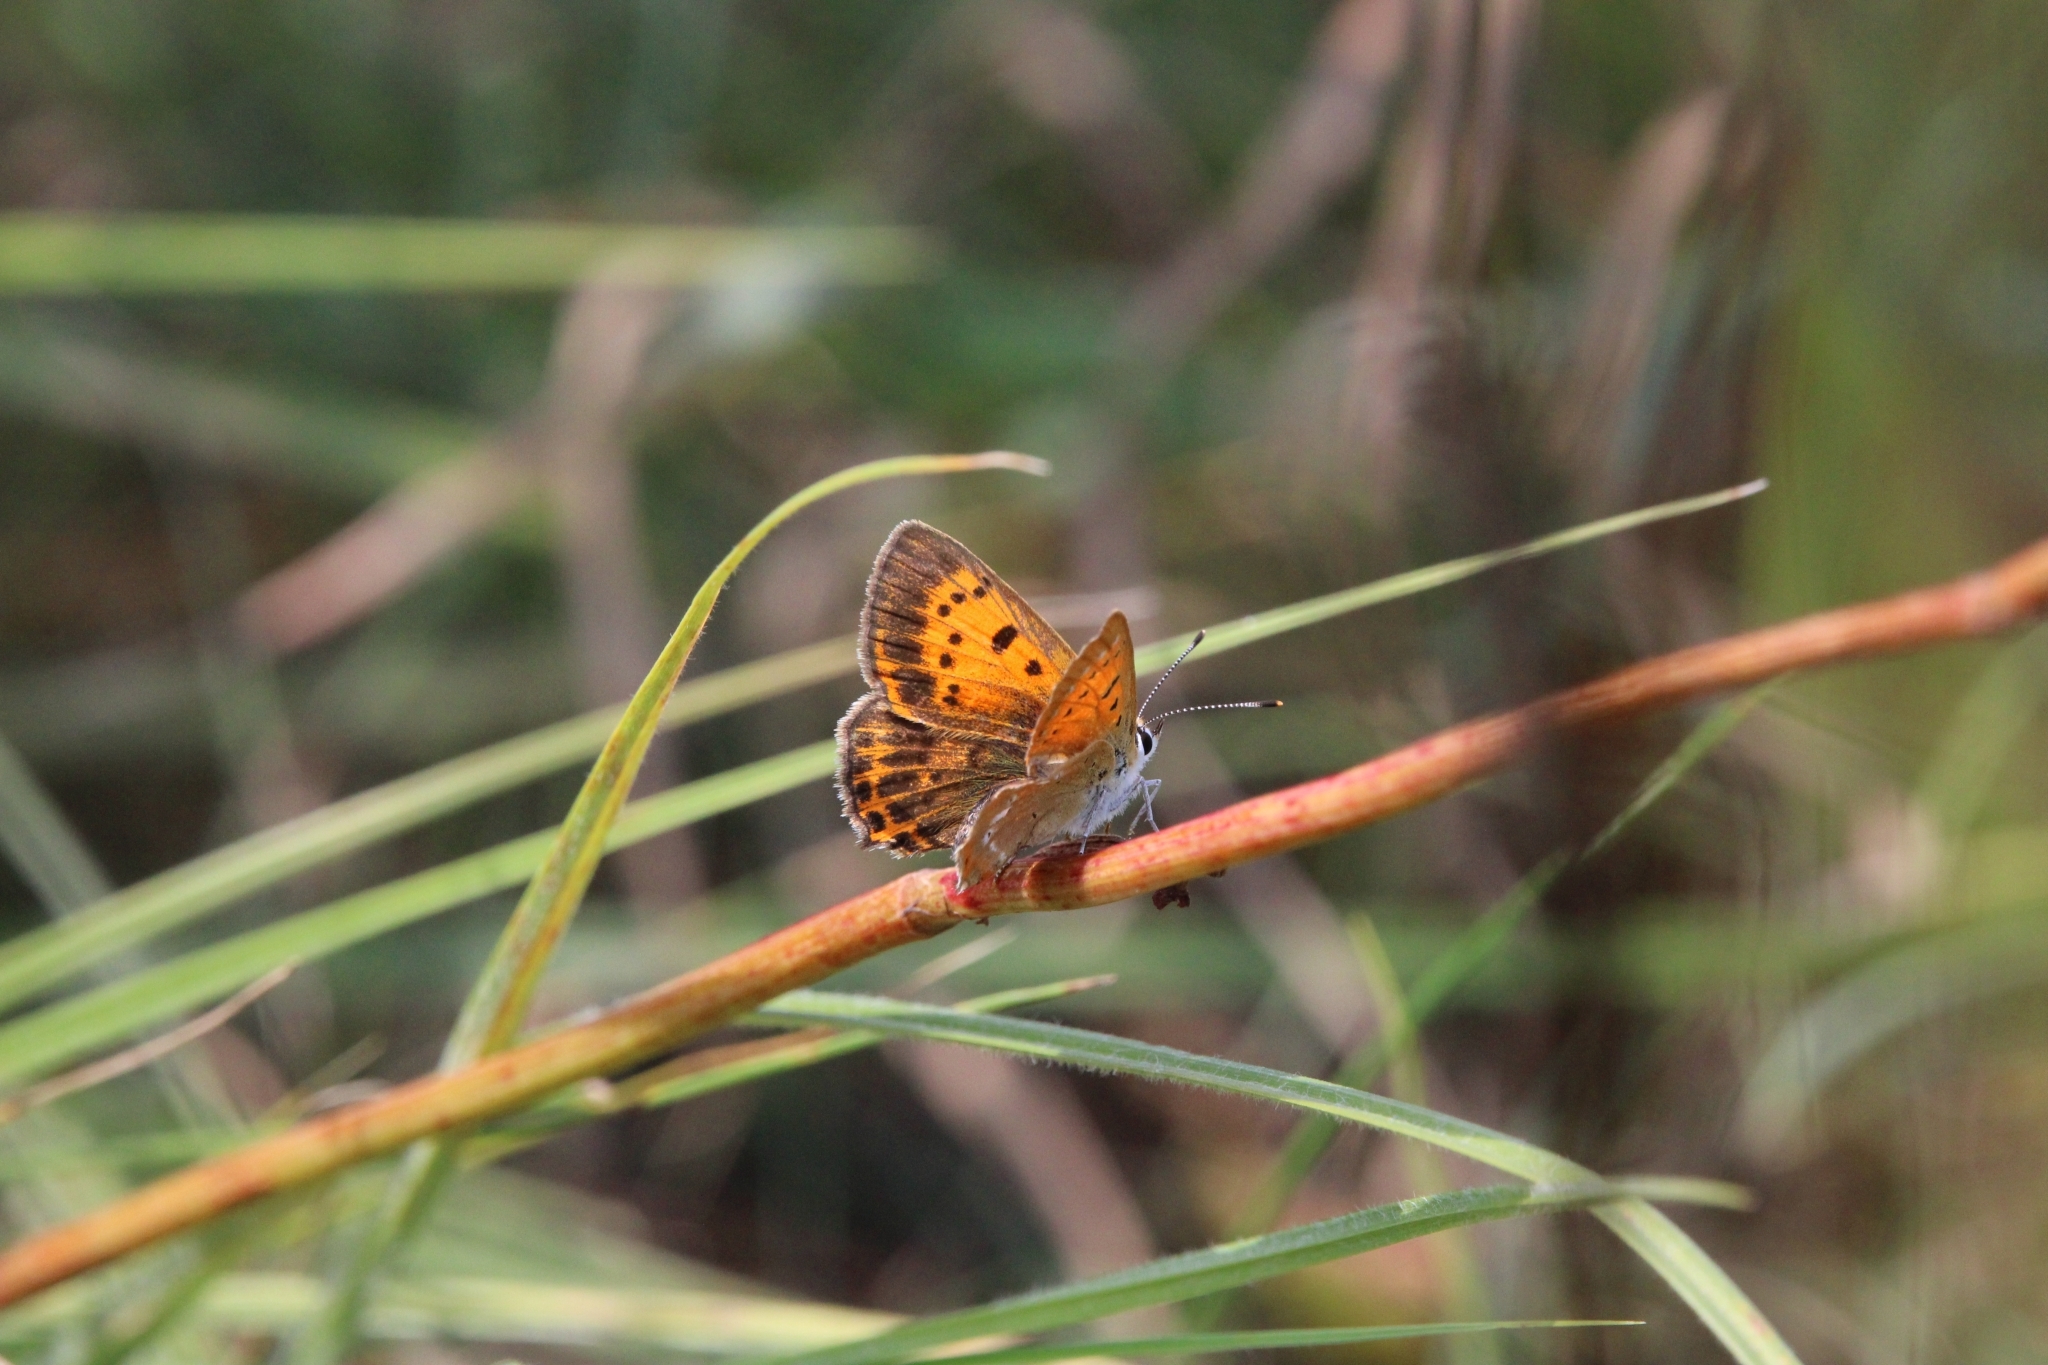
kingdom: Animalia
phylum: Arthropoda
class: Insecta
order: Lepidoptera
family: Lycaenidae
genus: Lycaena
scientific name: Lycaena virgaureae
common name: Scarce copper
